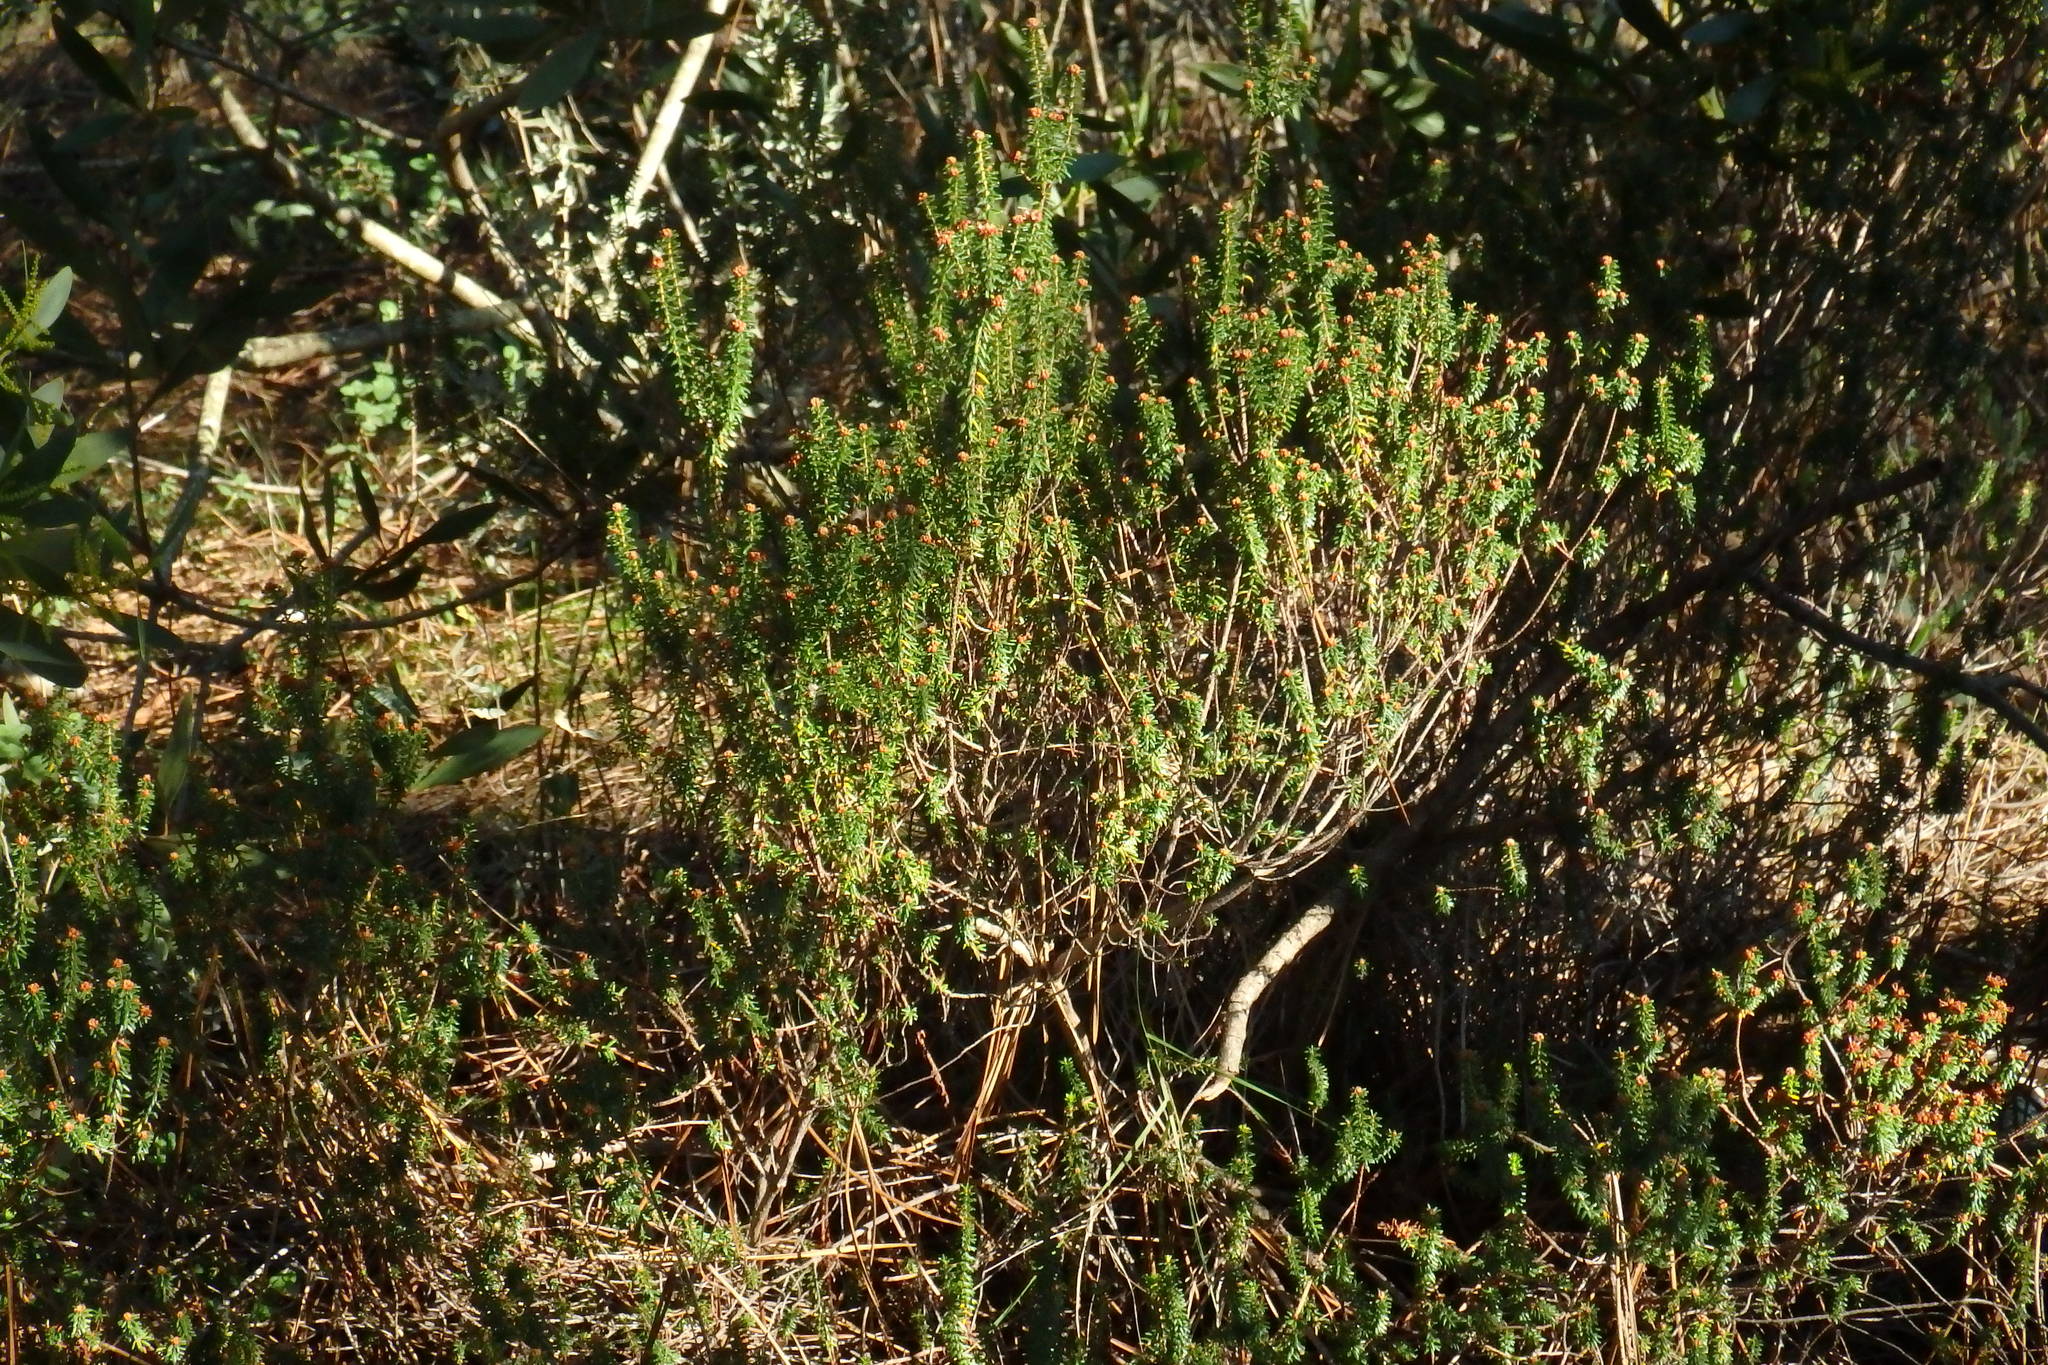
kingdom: Plantae
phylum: Tracheophyta
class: Magnoliopsida
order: Ericales
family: Ericaceae
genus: Corema
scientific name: Corema album
